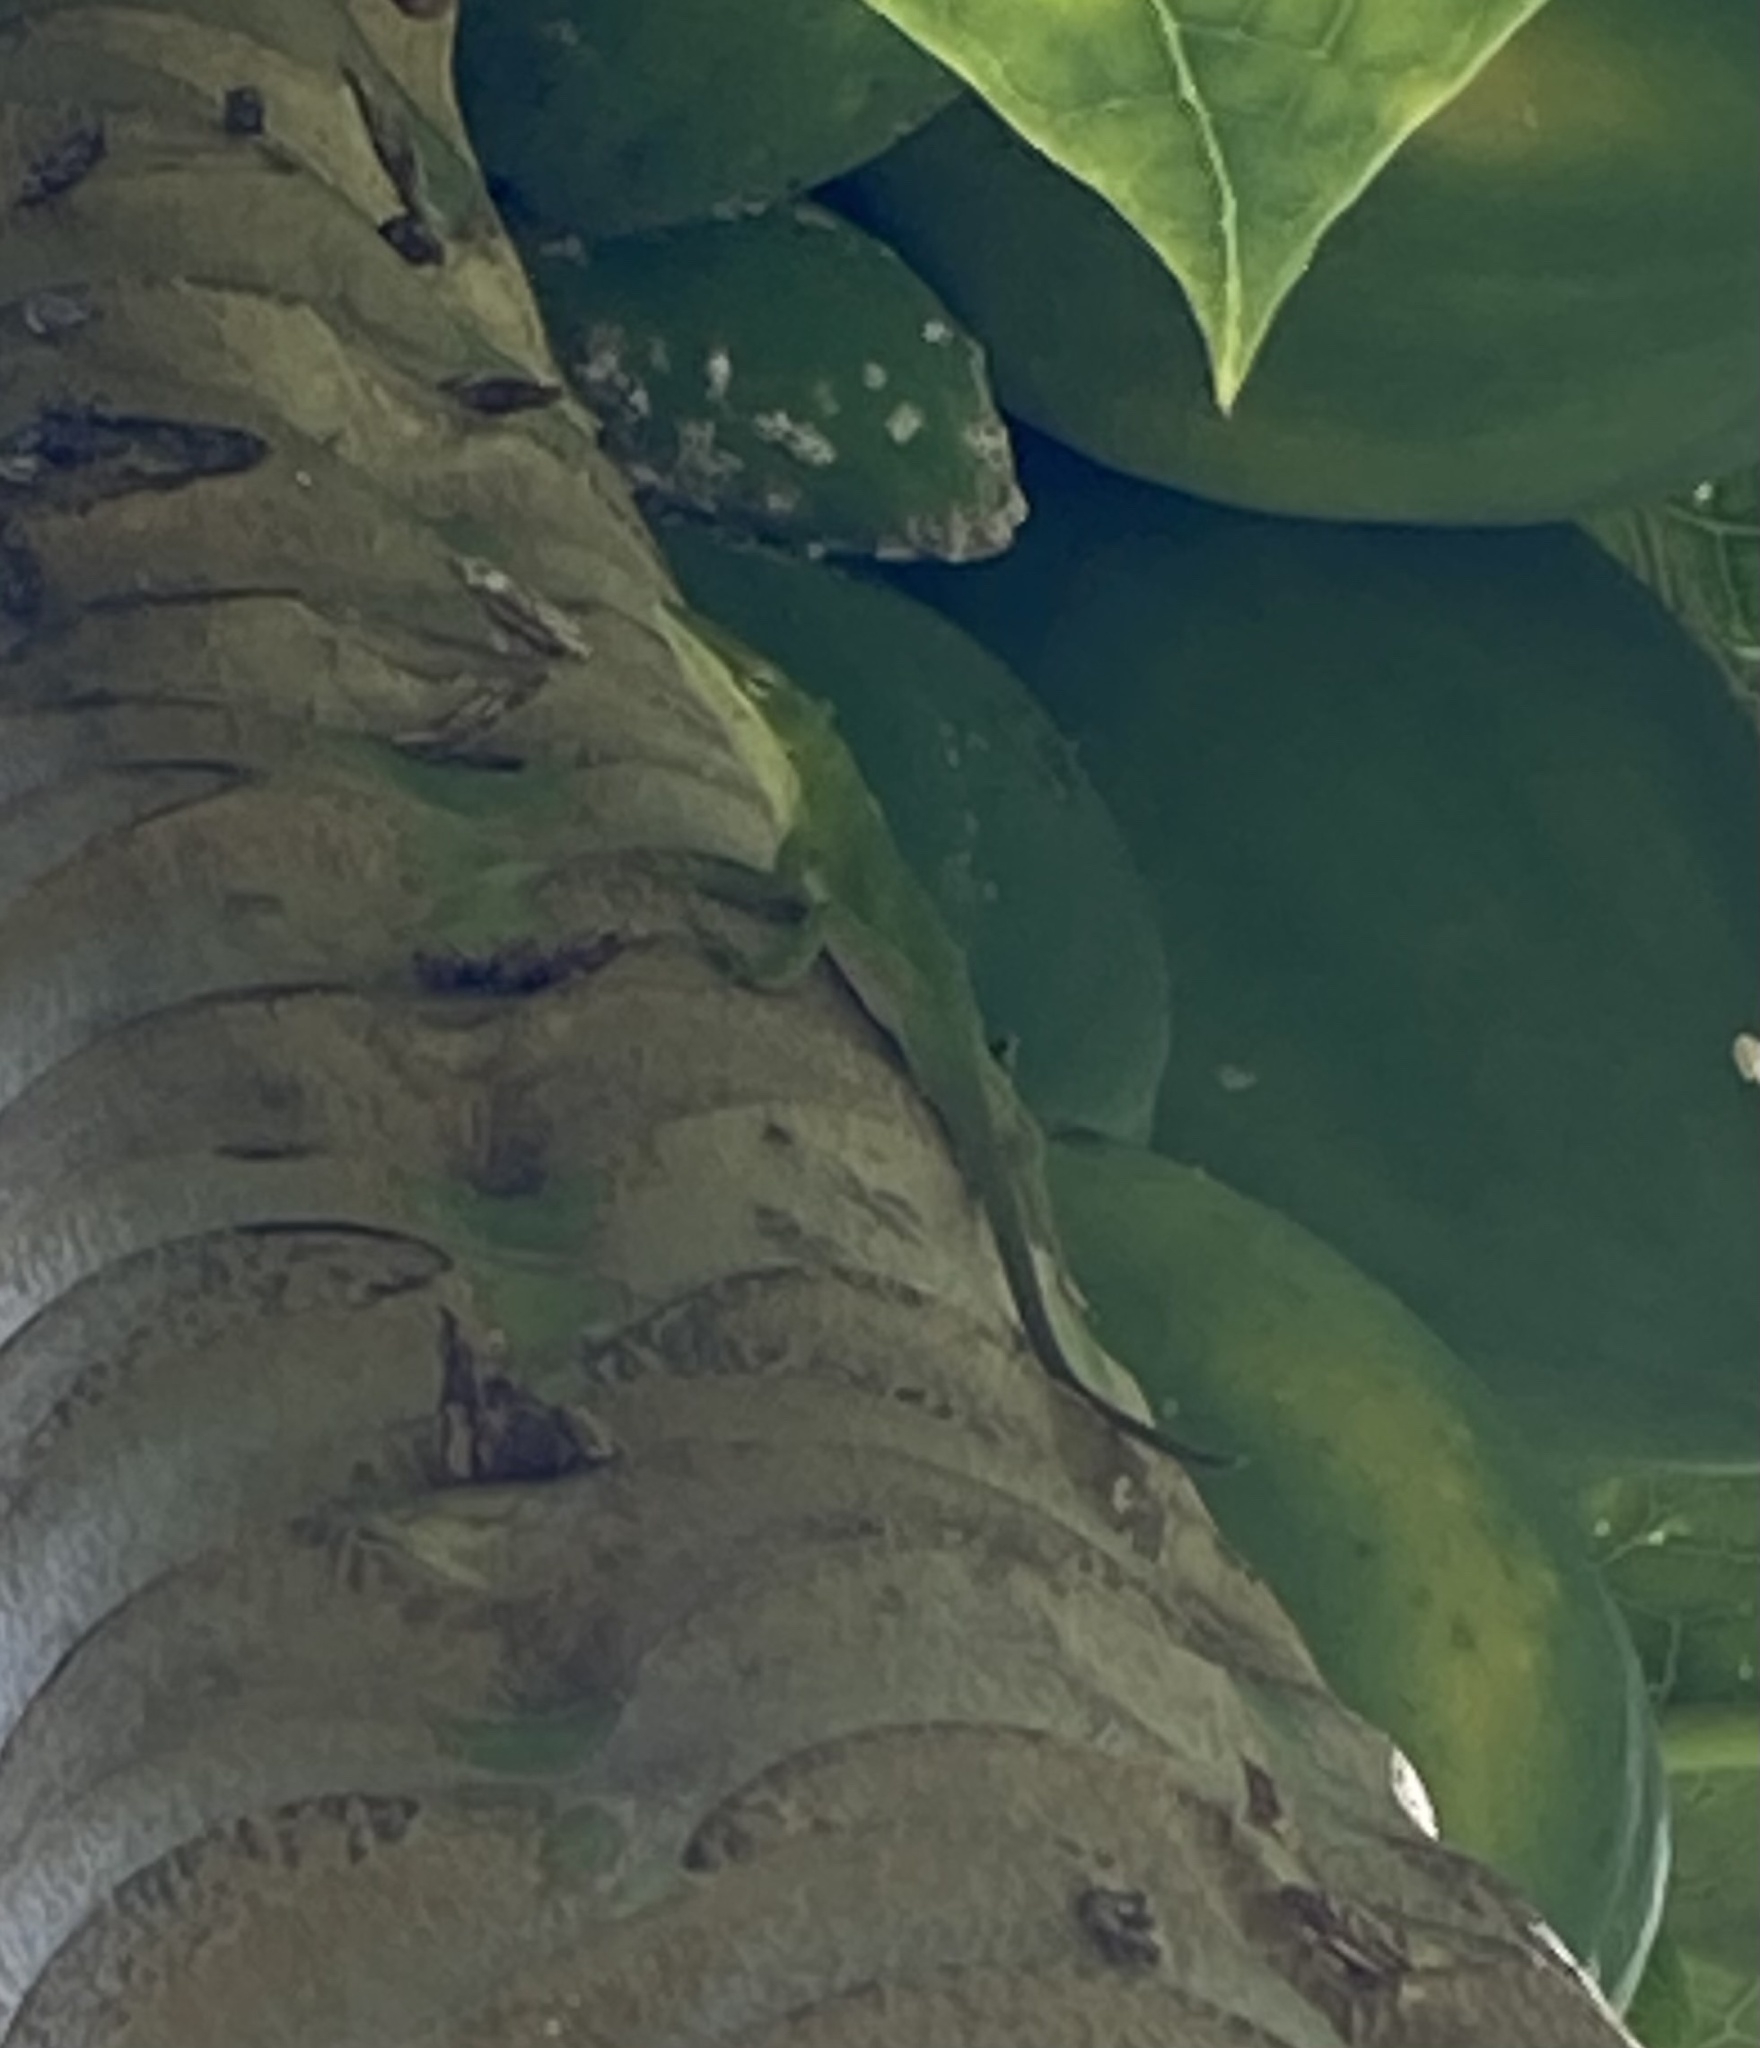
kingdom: Animalia
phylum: Chordata
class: Squamata
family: Dactyloidae
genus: Anolis
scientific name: Anolis carolinensis
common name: Green anole
